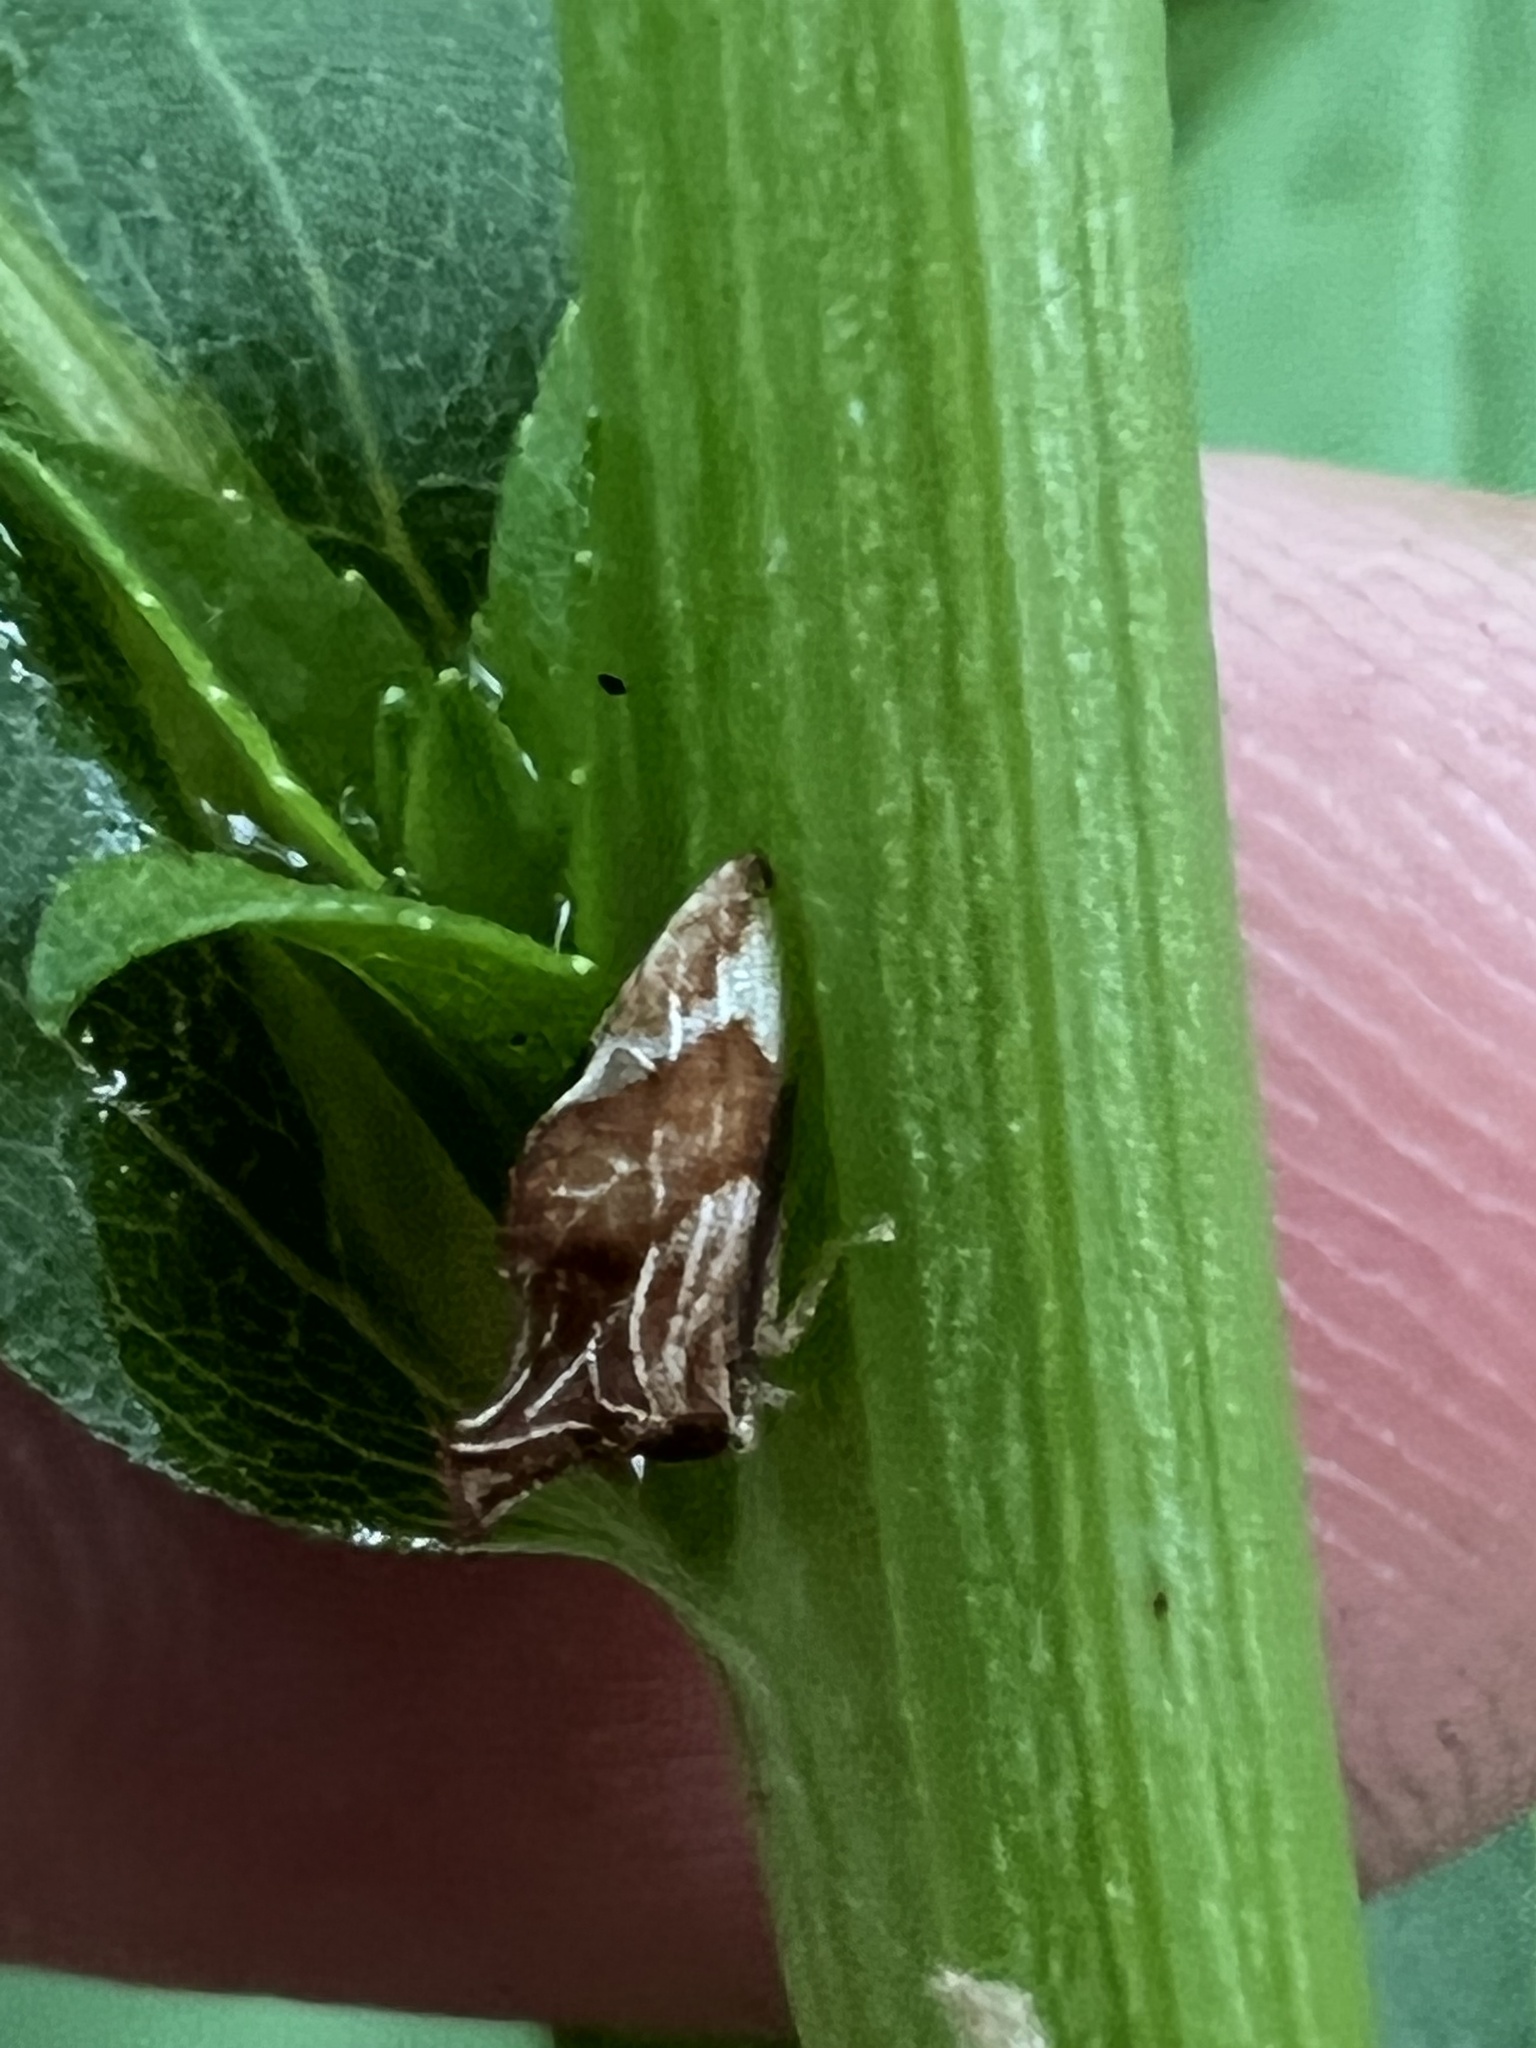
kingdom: Animalia
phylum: Arthropoda
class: Insecta
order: Hemiptera
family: Membracidae
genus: Entylia
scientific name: Entylia carinata
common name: Keeled treehopper
